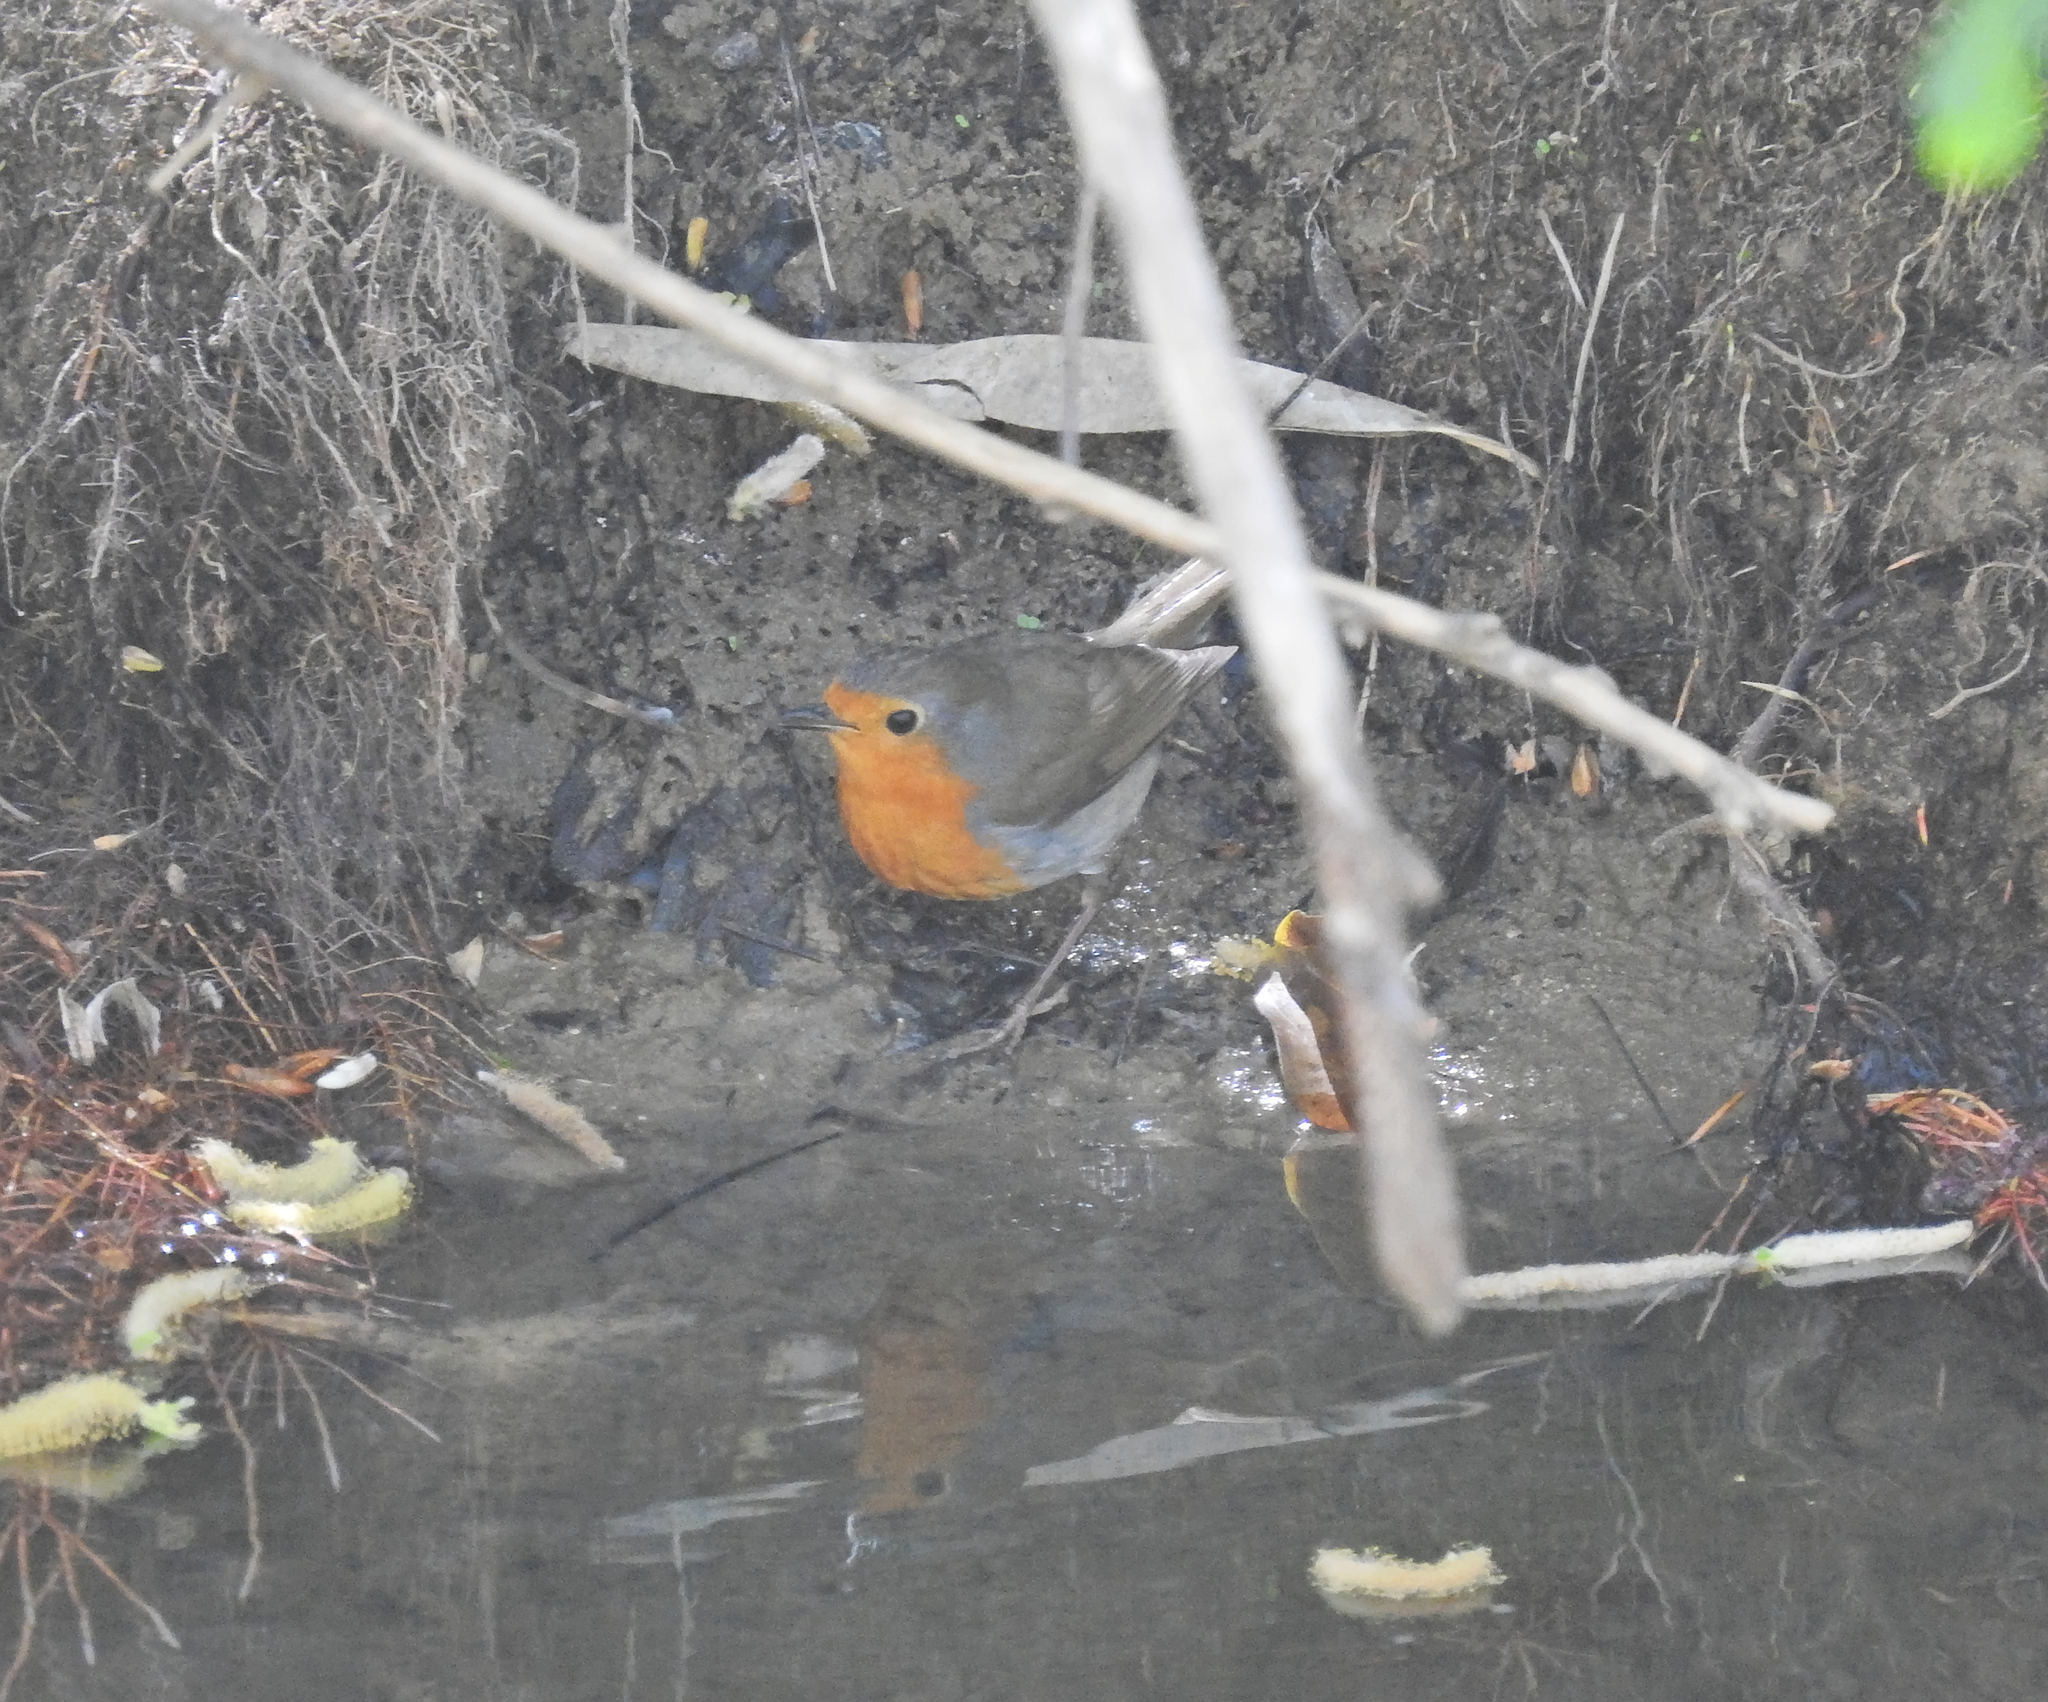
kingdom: Animalia
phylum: Chordata
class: Aves
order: Passeriformes
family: Muscicapidae
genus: Erithacus
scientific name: Erithacus rubecula
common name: European robin
